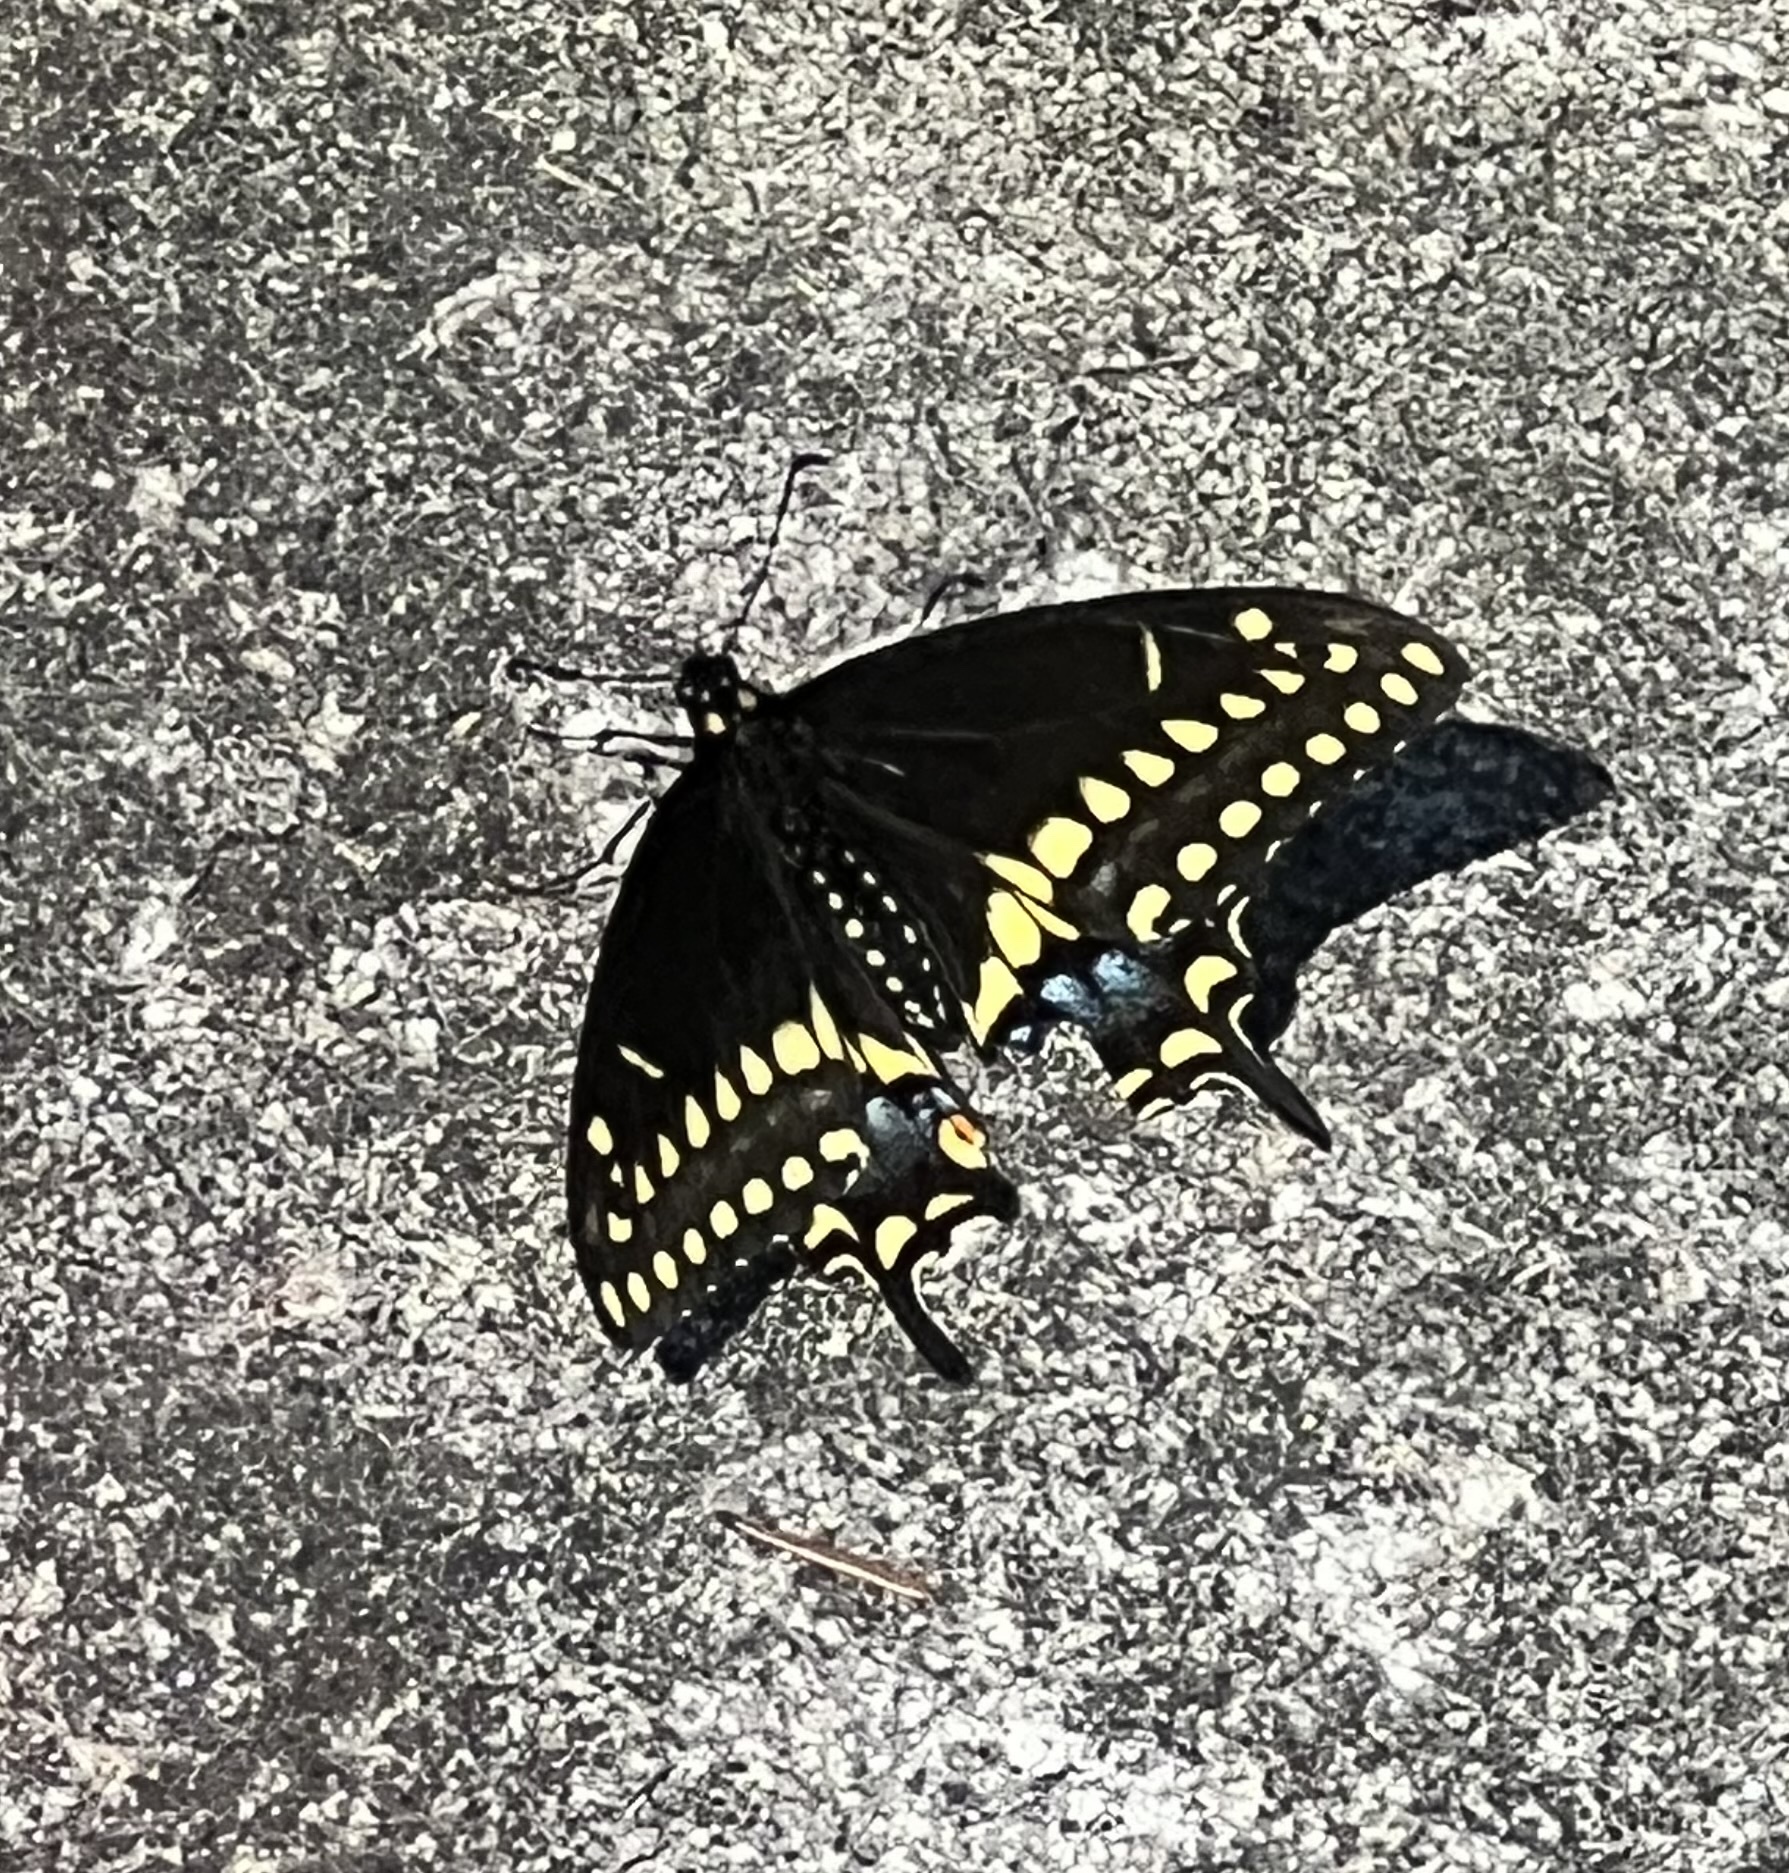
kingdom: Animalia
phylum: Arthropoda
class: Insecta
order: Lepidoptera
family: Papilionidae
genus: Papilio
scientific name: Papilio polyxenes
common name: Black swallowtail
